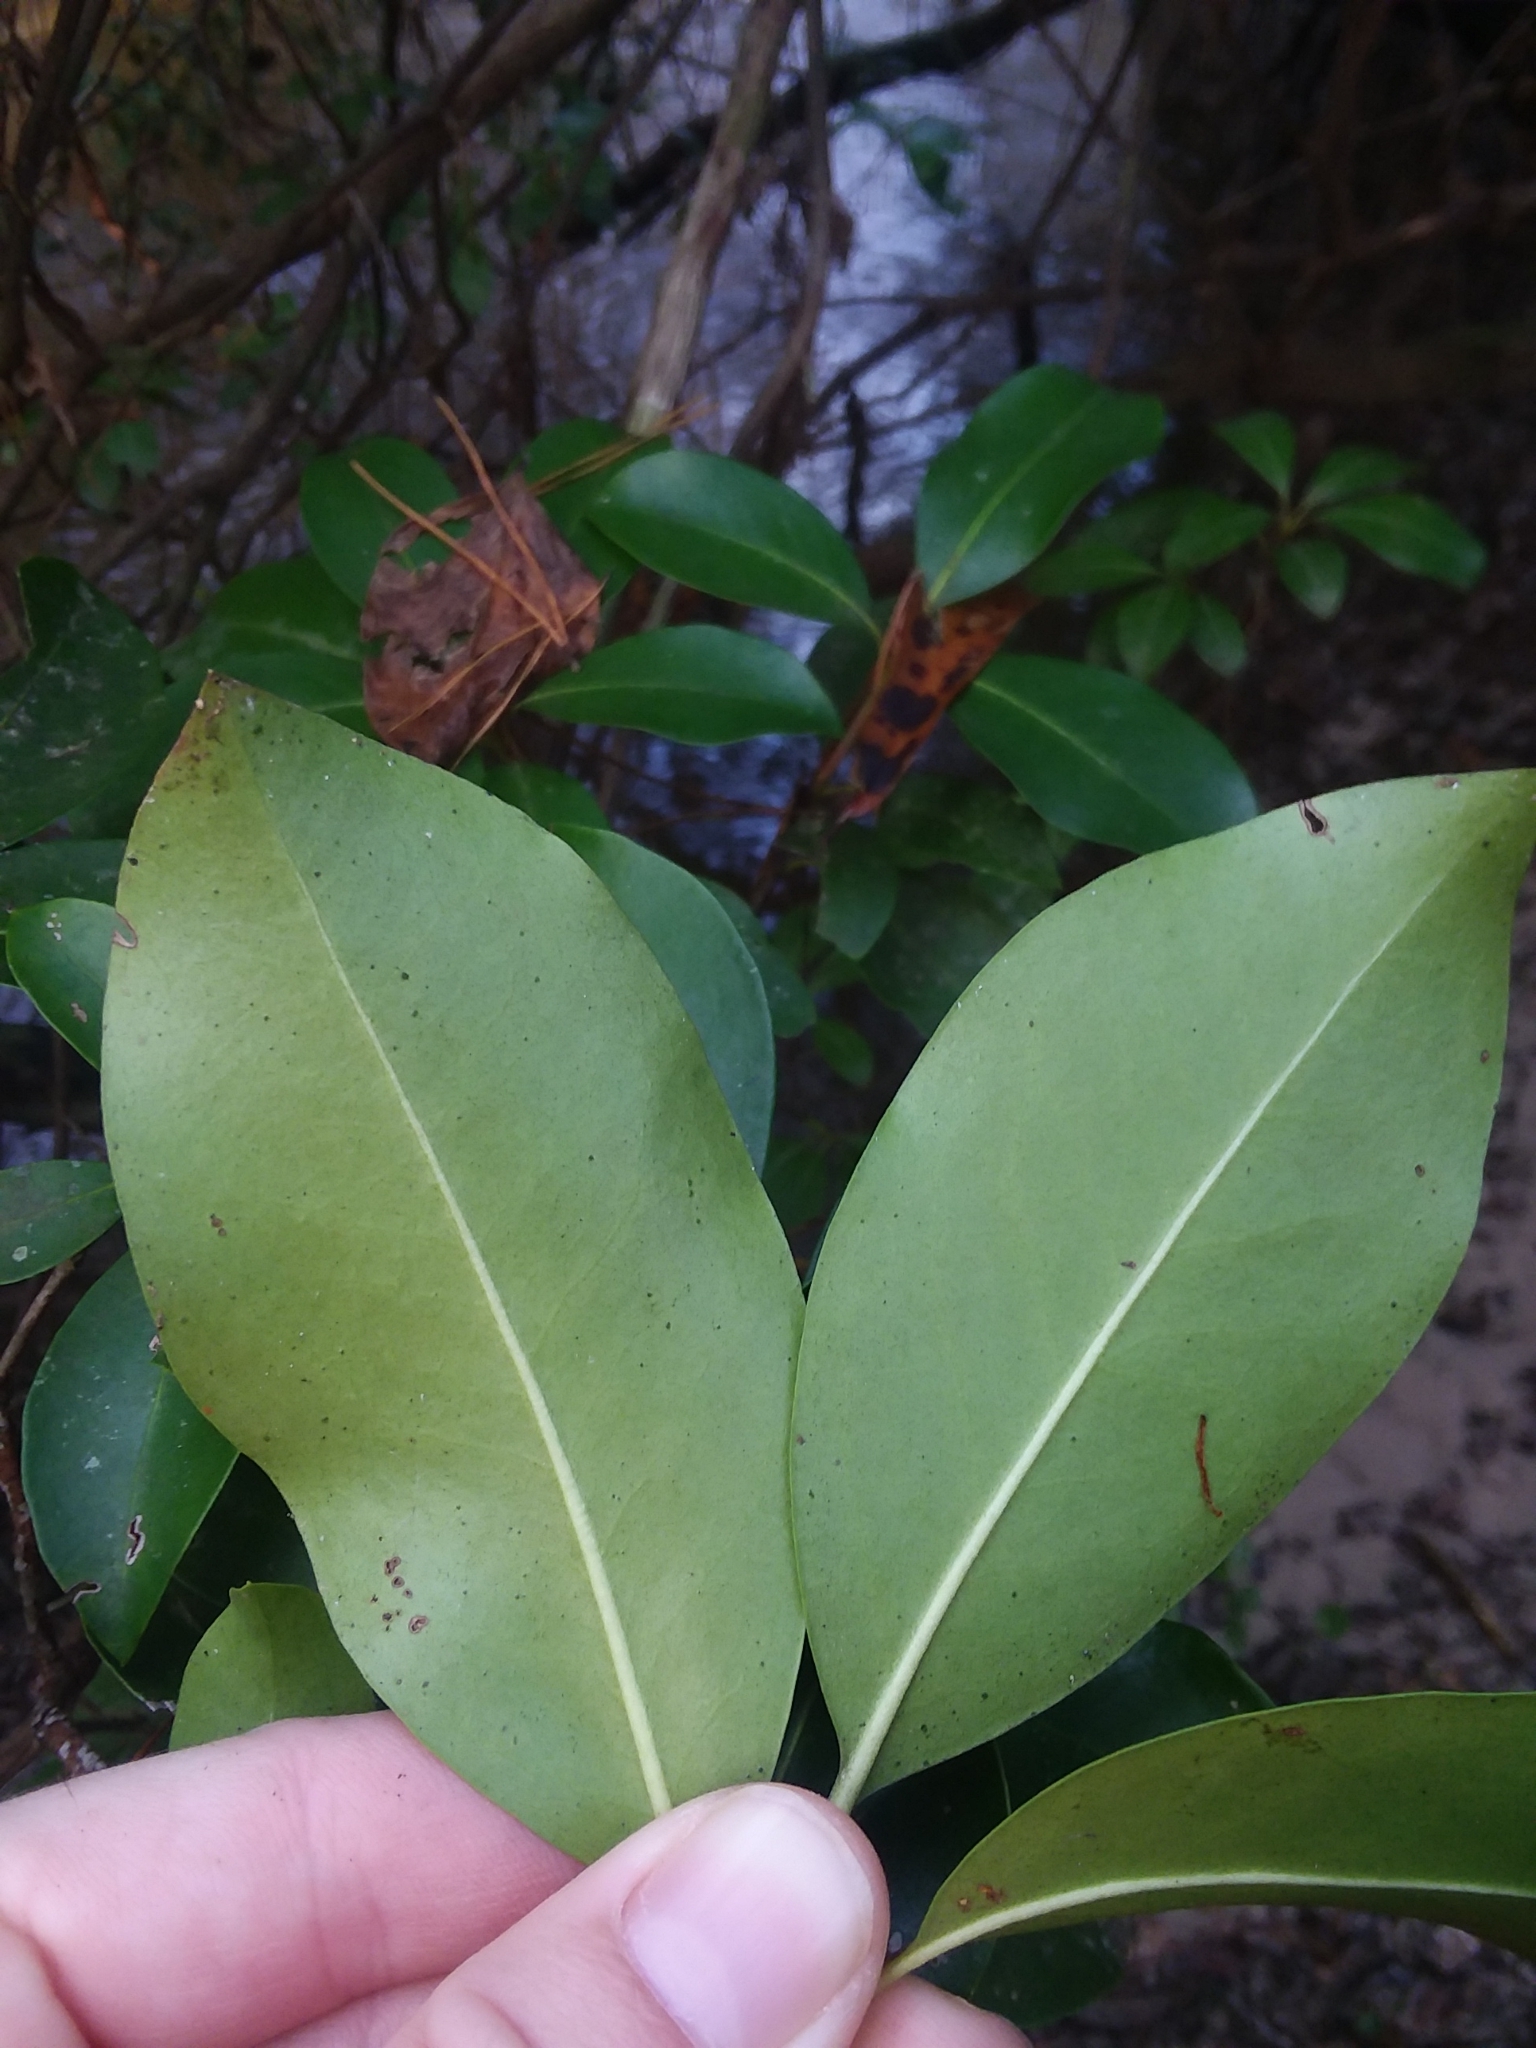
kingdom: Plantae
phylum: Tracheophyta
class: Magnoliopsida
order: Ericales
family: Ericaceae
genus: Kalmia
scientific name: Kalmia latifolia
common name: Mountain-laurel
